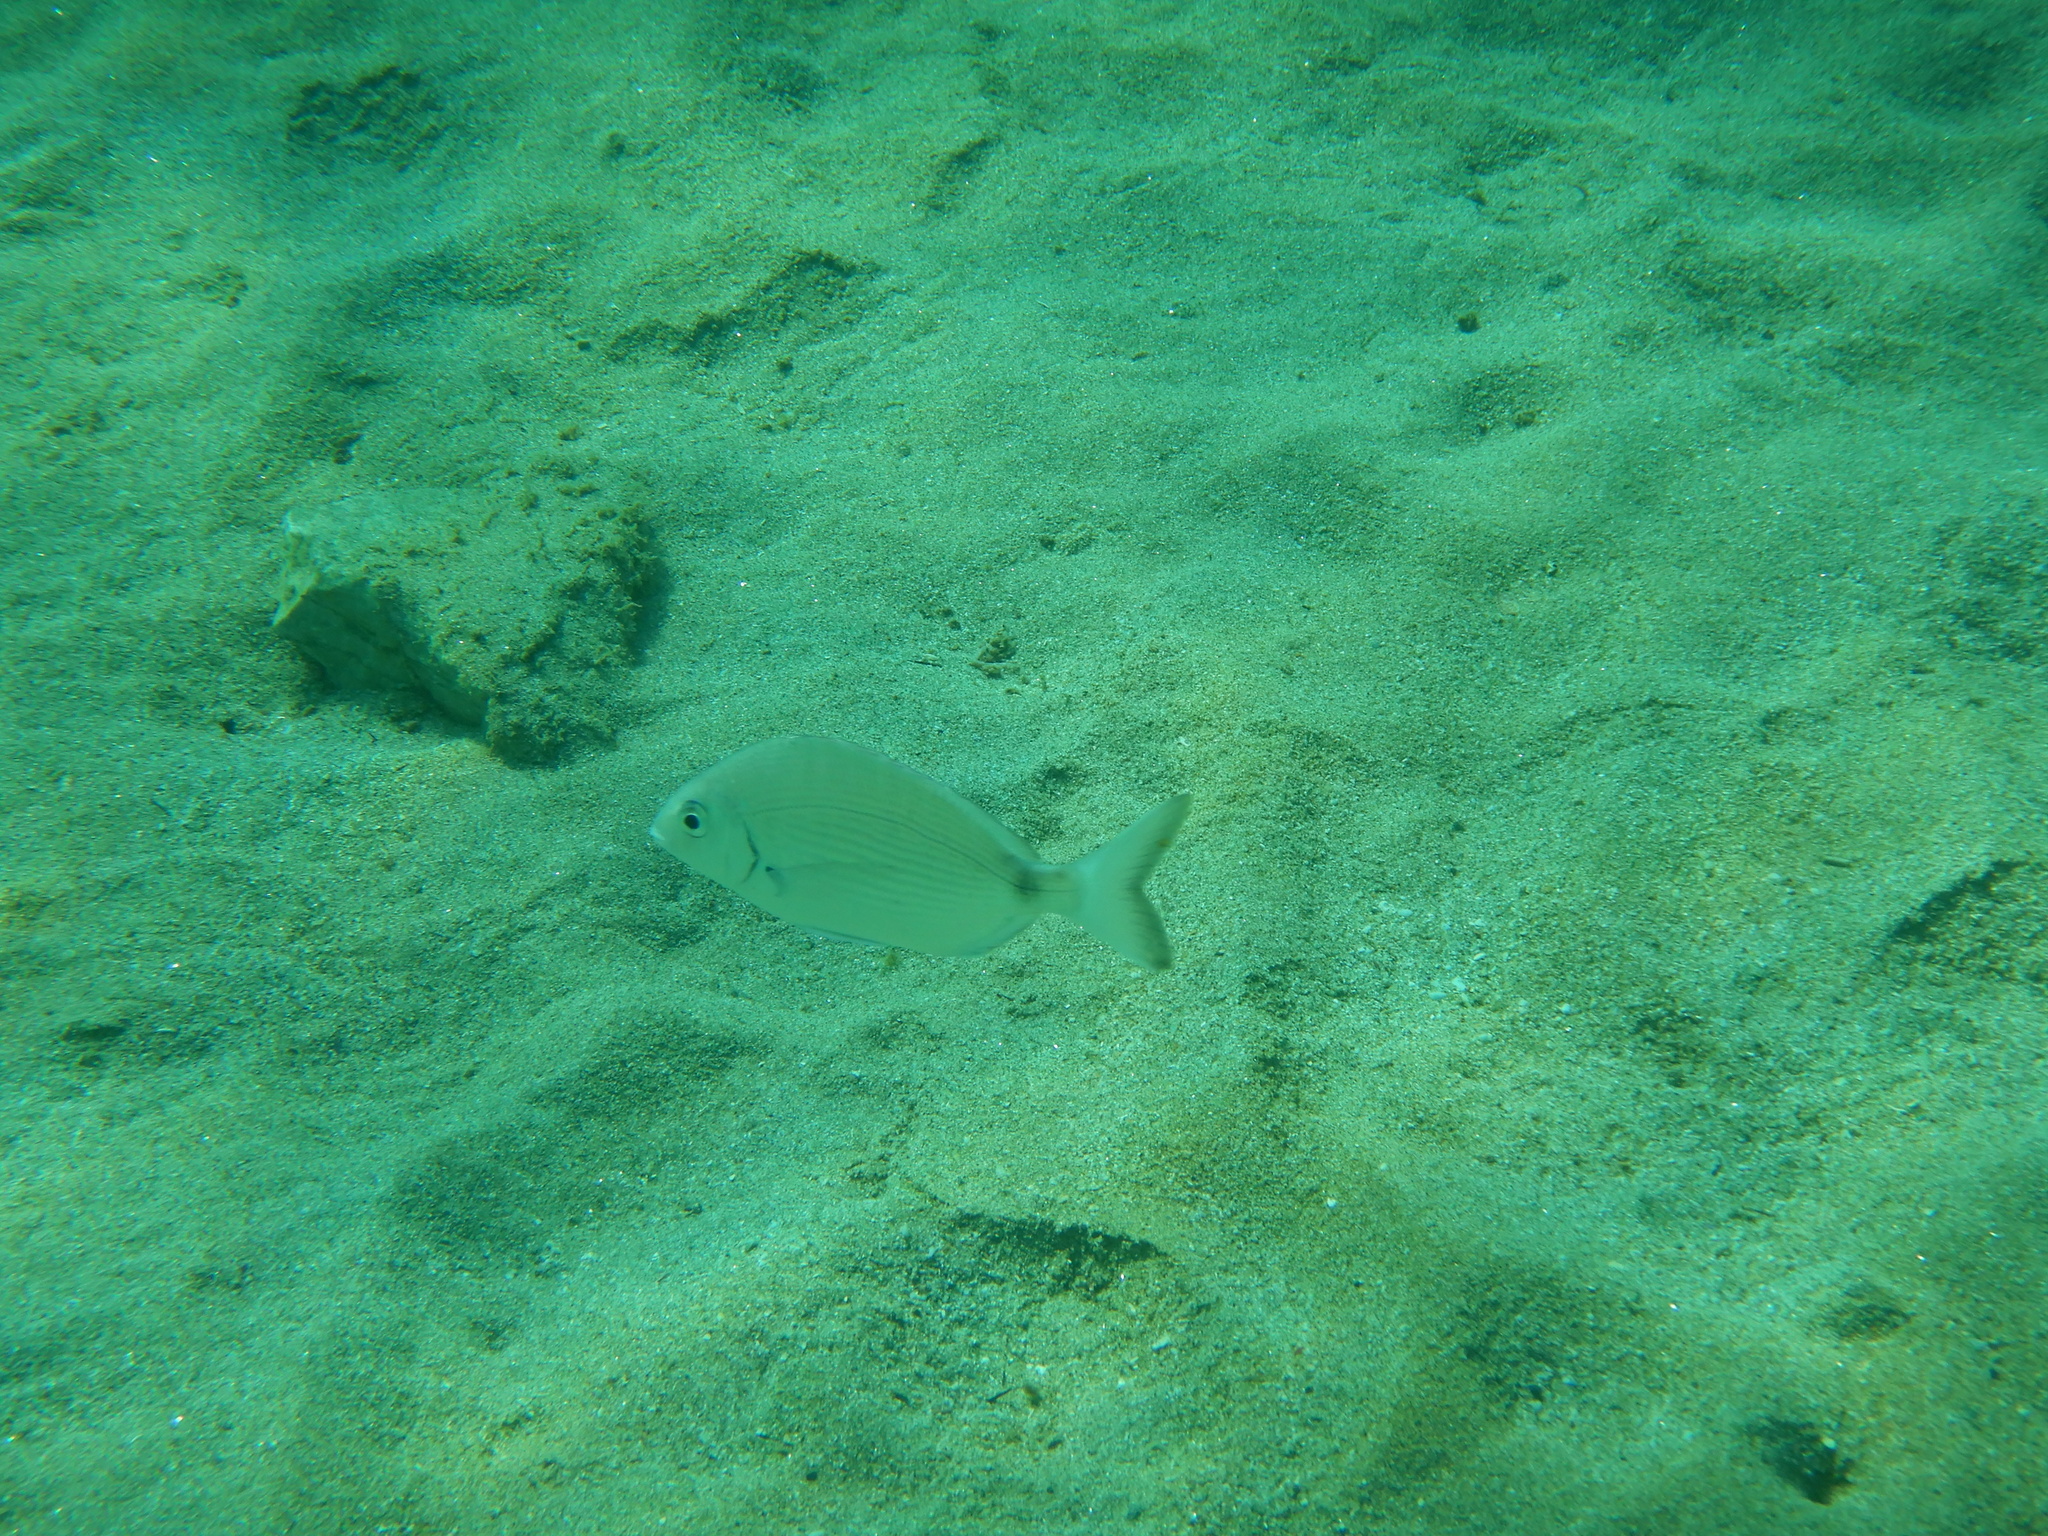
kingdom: Animalia
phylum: Chordata
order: Perciformes
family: Sparidae
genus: Diplodus
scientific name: Diplodus sargus
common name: White seabream
